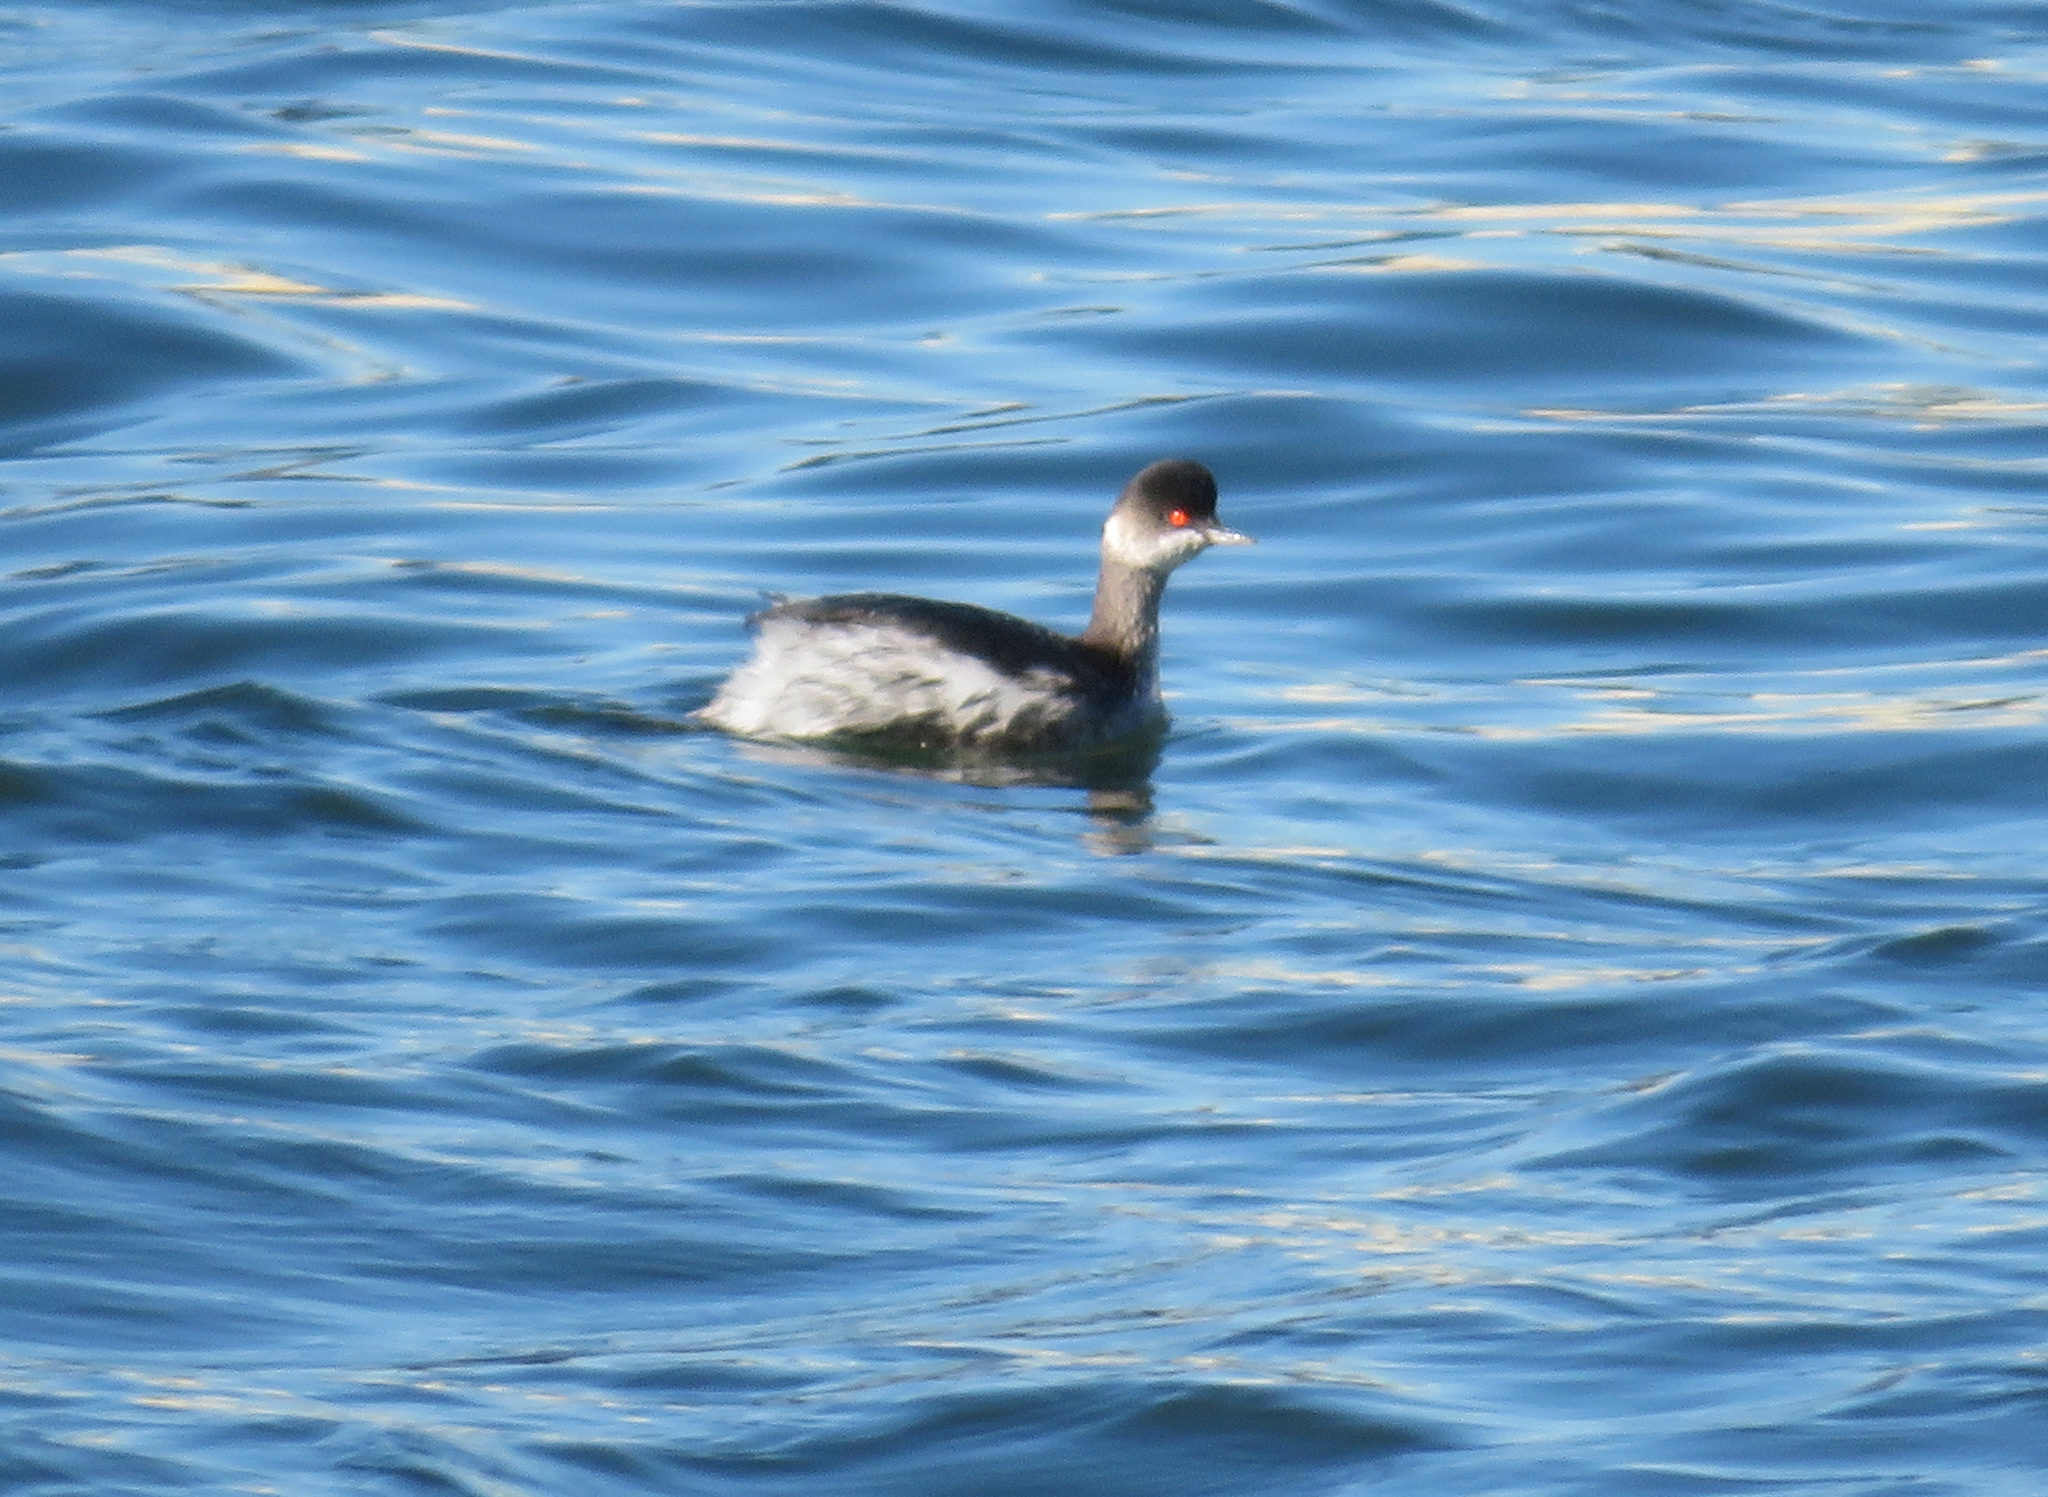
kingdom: Animalia
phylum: Chordata
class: Aves
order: Podicipediformes
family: Podicipedidae
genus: Podiceps
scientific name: Podiceps nigricollis
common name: Black-necked grebe
